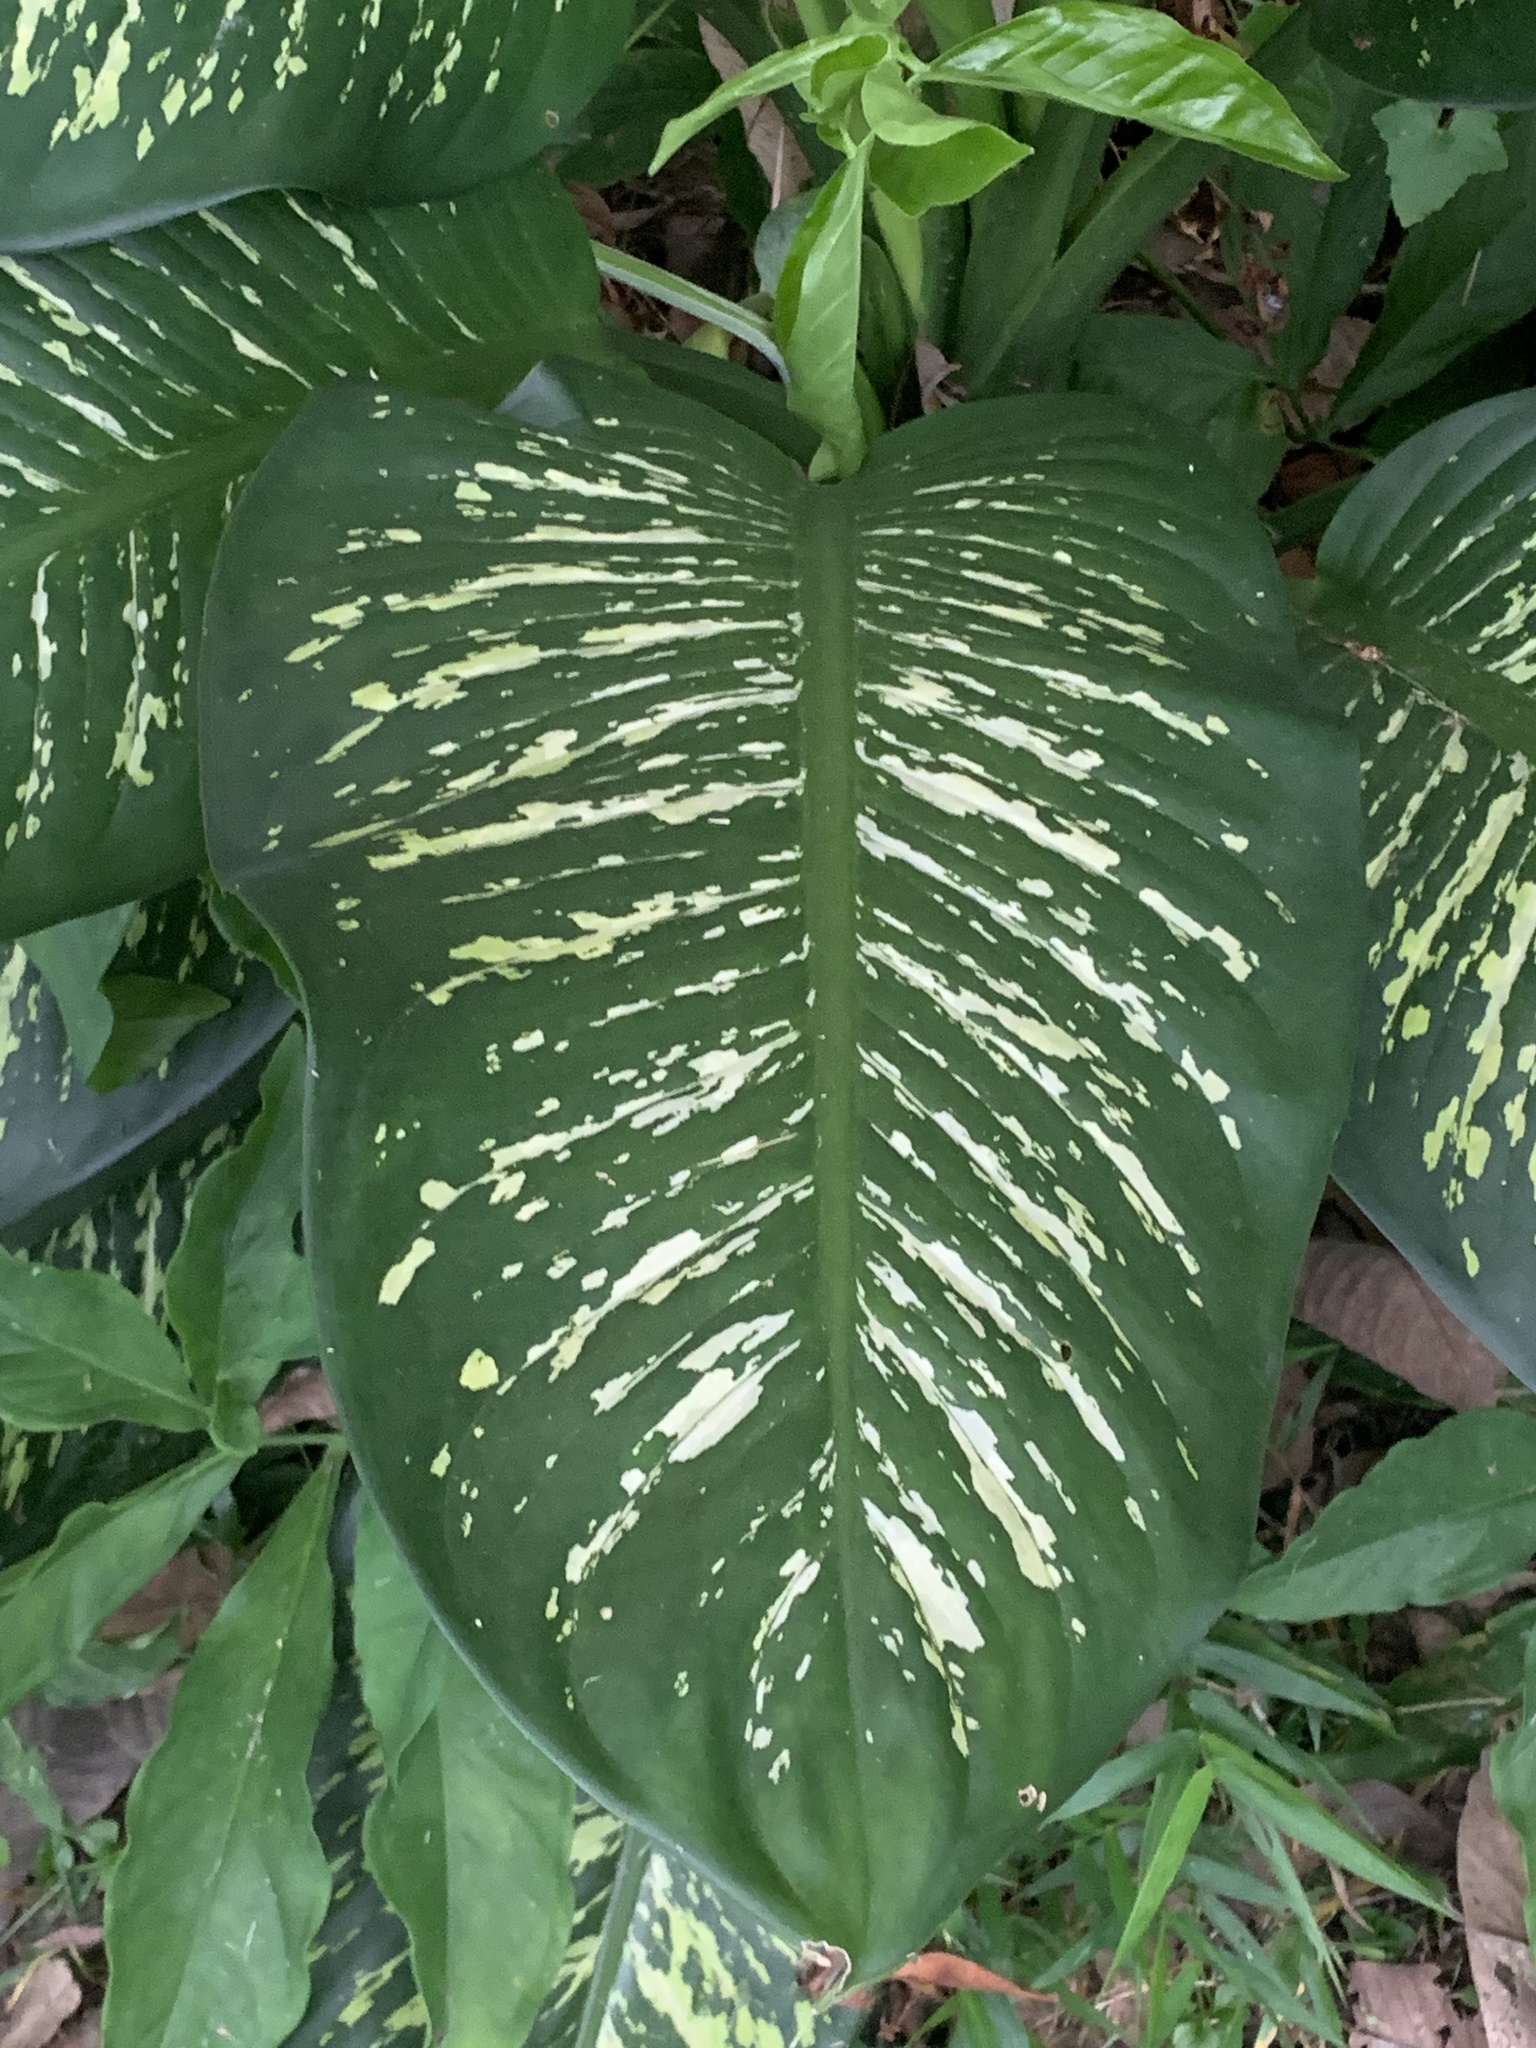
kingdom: Plantae
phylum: Tracheophyta
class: Liliopsida
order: Alismatales
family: Araceae
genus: Dieffenbachia
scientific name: Dieffenbachia seguine
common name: Dumbcane
